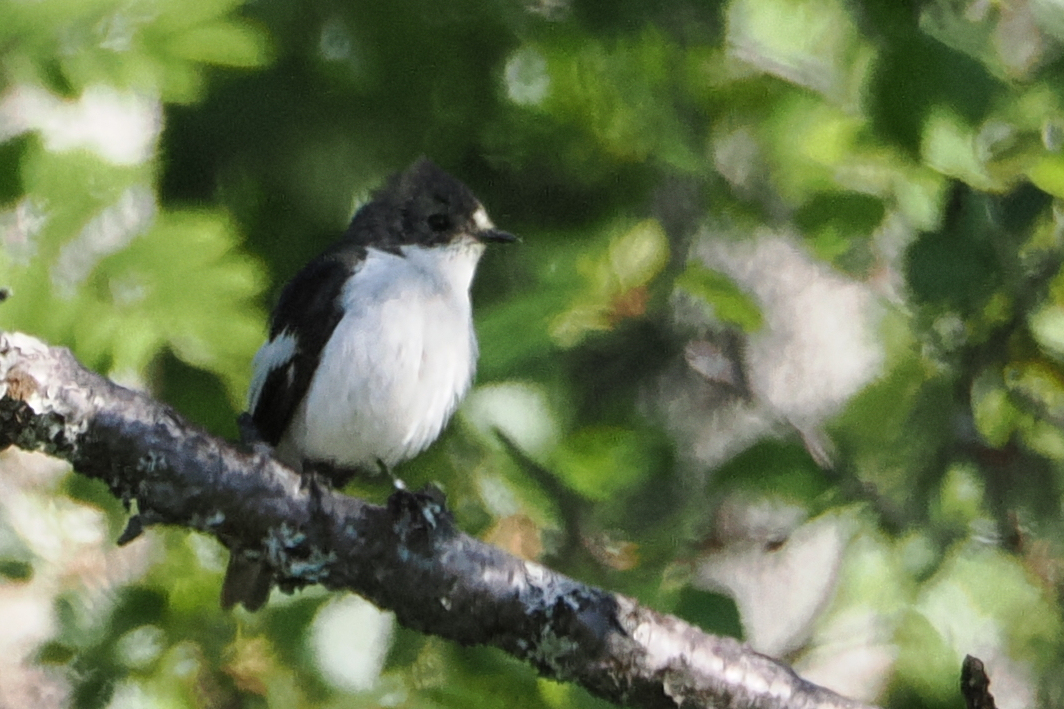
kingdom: Animalia
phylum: Chordata
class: Aves
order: Passeriformes
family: Muscicapidae
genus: Ficedula
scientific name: Ficedula hypoleuca
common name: European pied flycatcher
